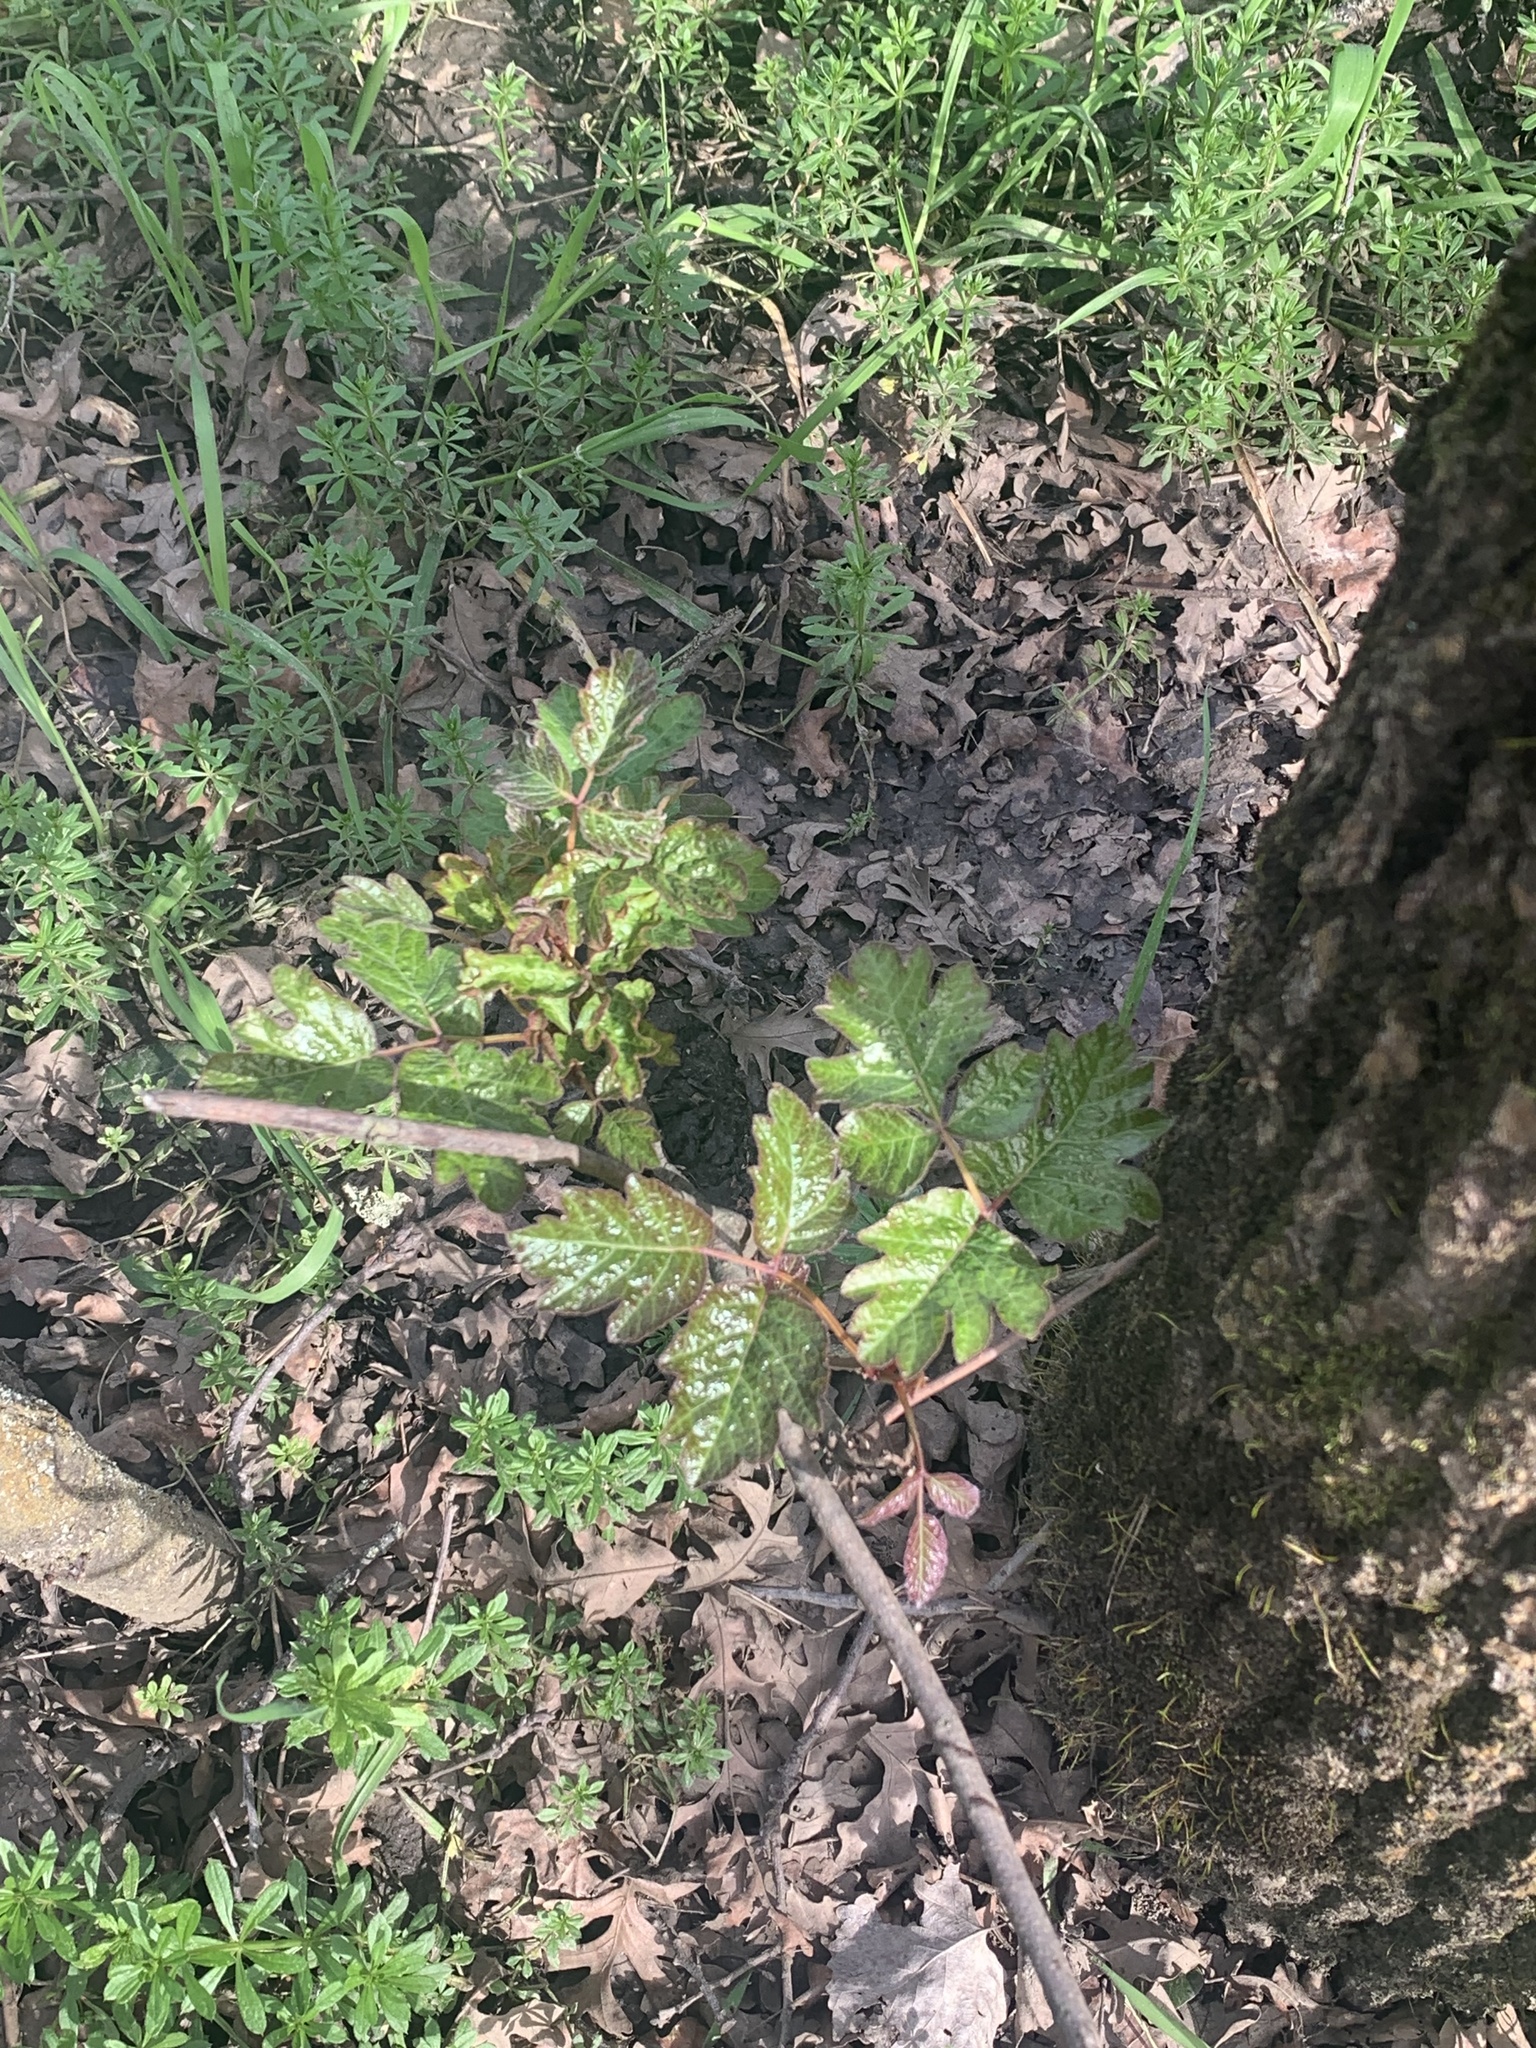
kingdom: Plantae
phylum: Tracheophyta
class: Magnoliopsida
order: Sapindales
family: Anacardiaceae
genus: Toxicodendron
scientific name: Toxicodendron diversilobum
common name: Pacific poison-oak
